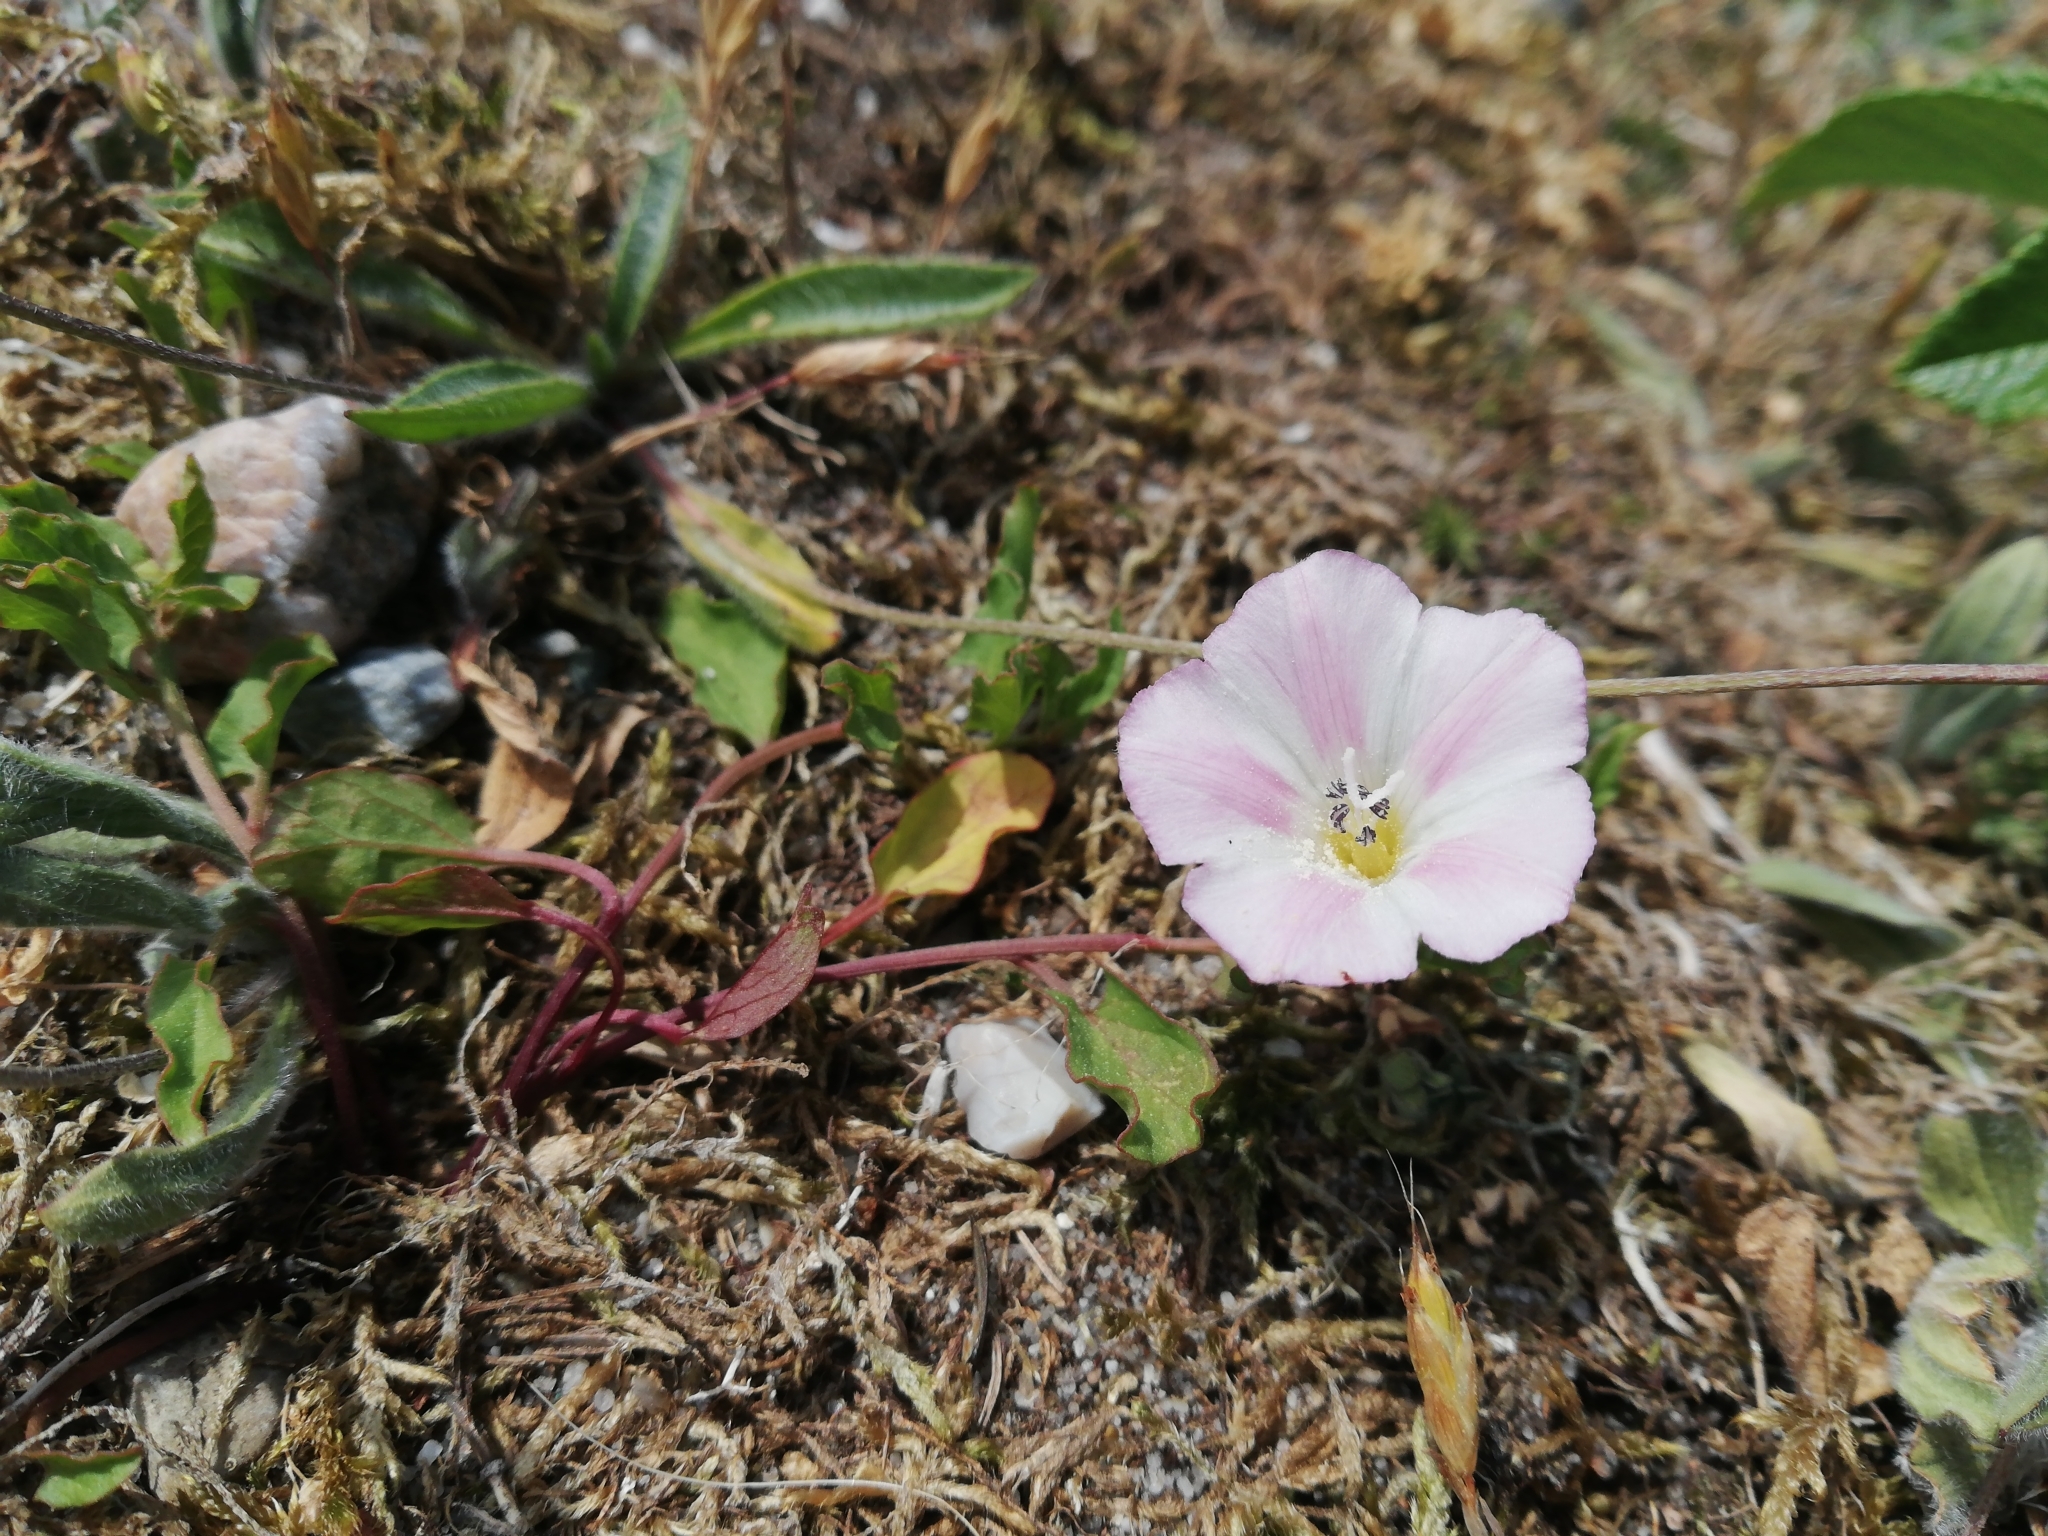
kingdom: Plantae
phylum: Tracheophyta
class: Magnoliopsida
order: Solanales
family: Convolvulaceae
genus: Convolvulus
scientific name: Convolvulus arvensis
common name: Field bindweed
